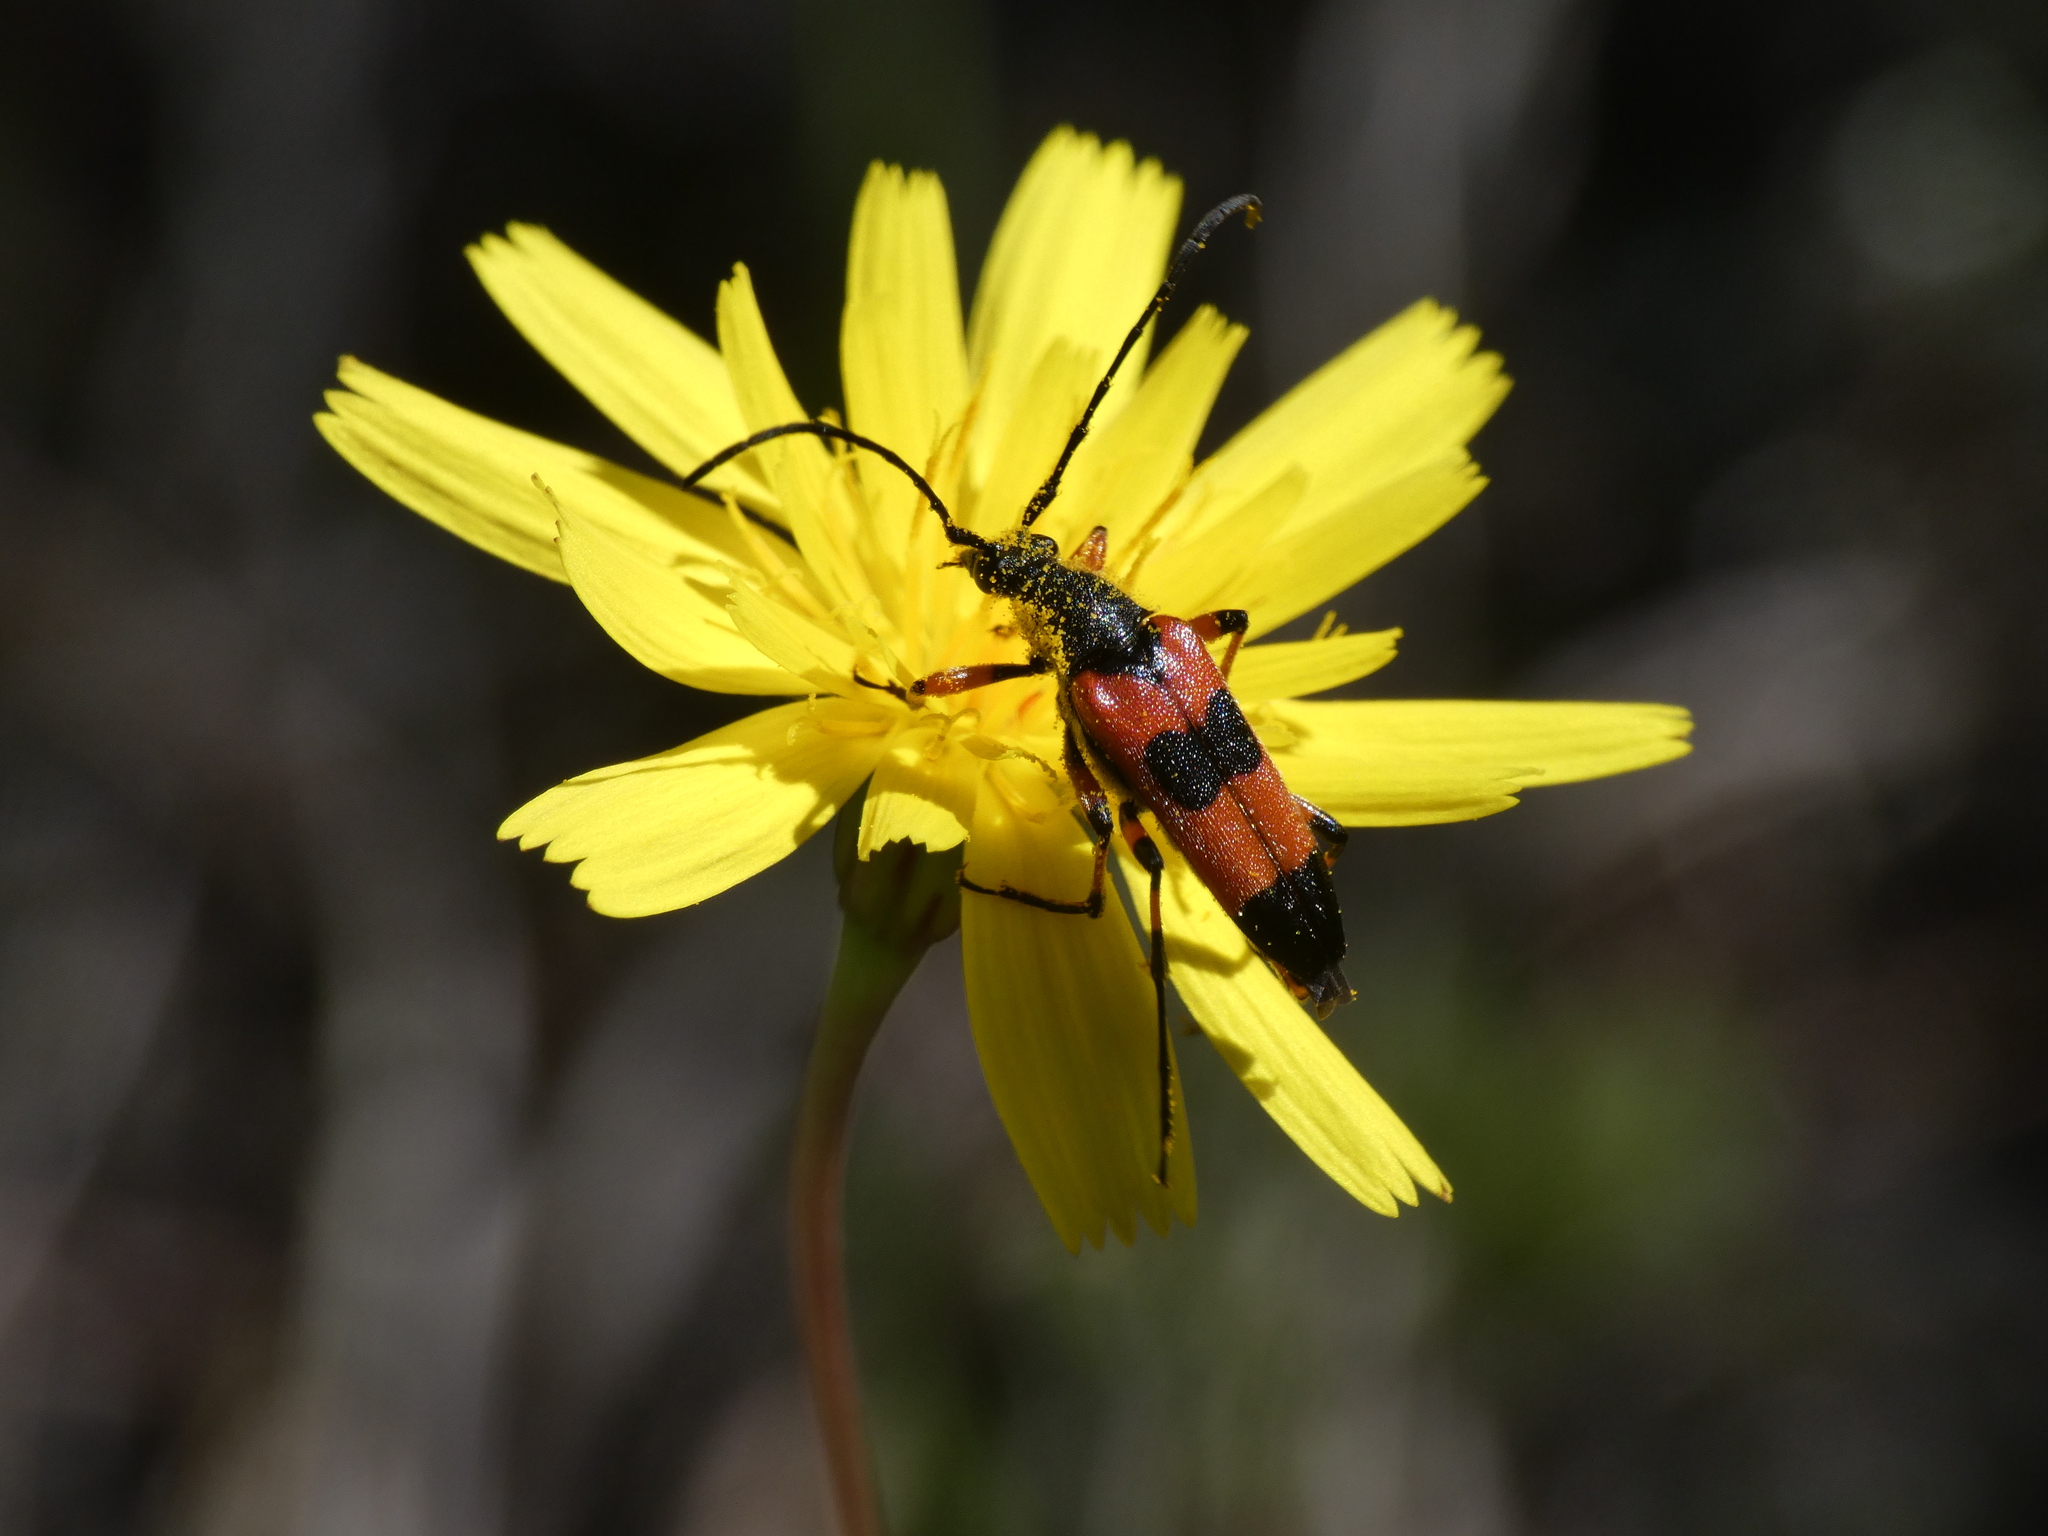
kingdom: Animalia
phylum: Arthropoda
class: Insecta
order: Coleoptera
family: Cerambycidae
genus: Nustera
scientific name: Nustera distigma
